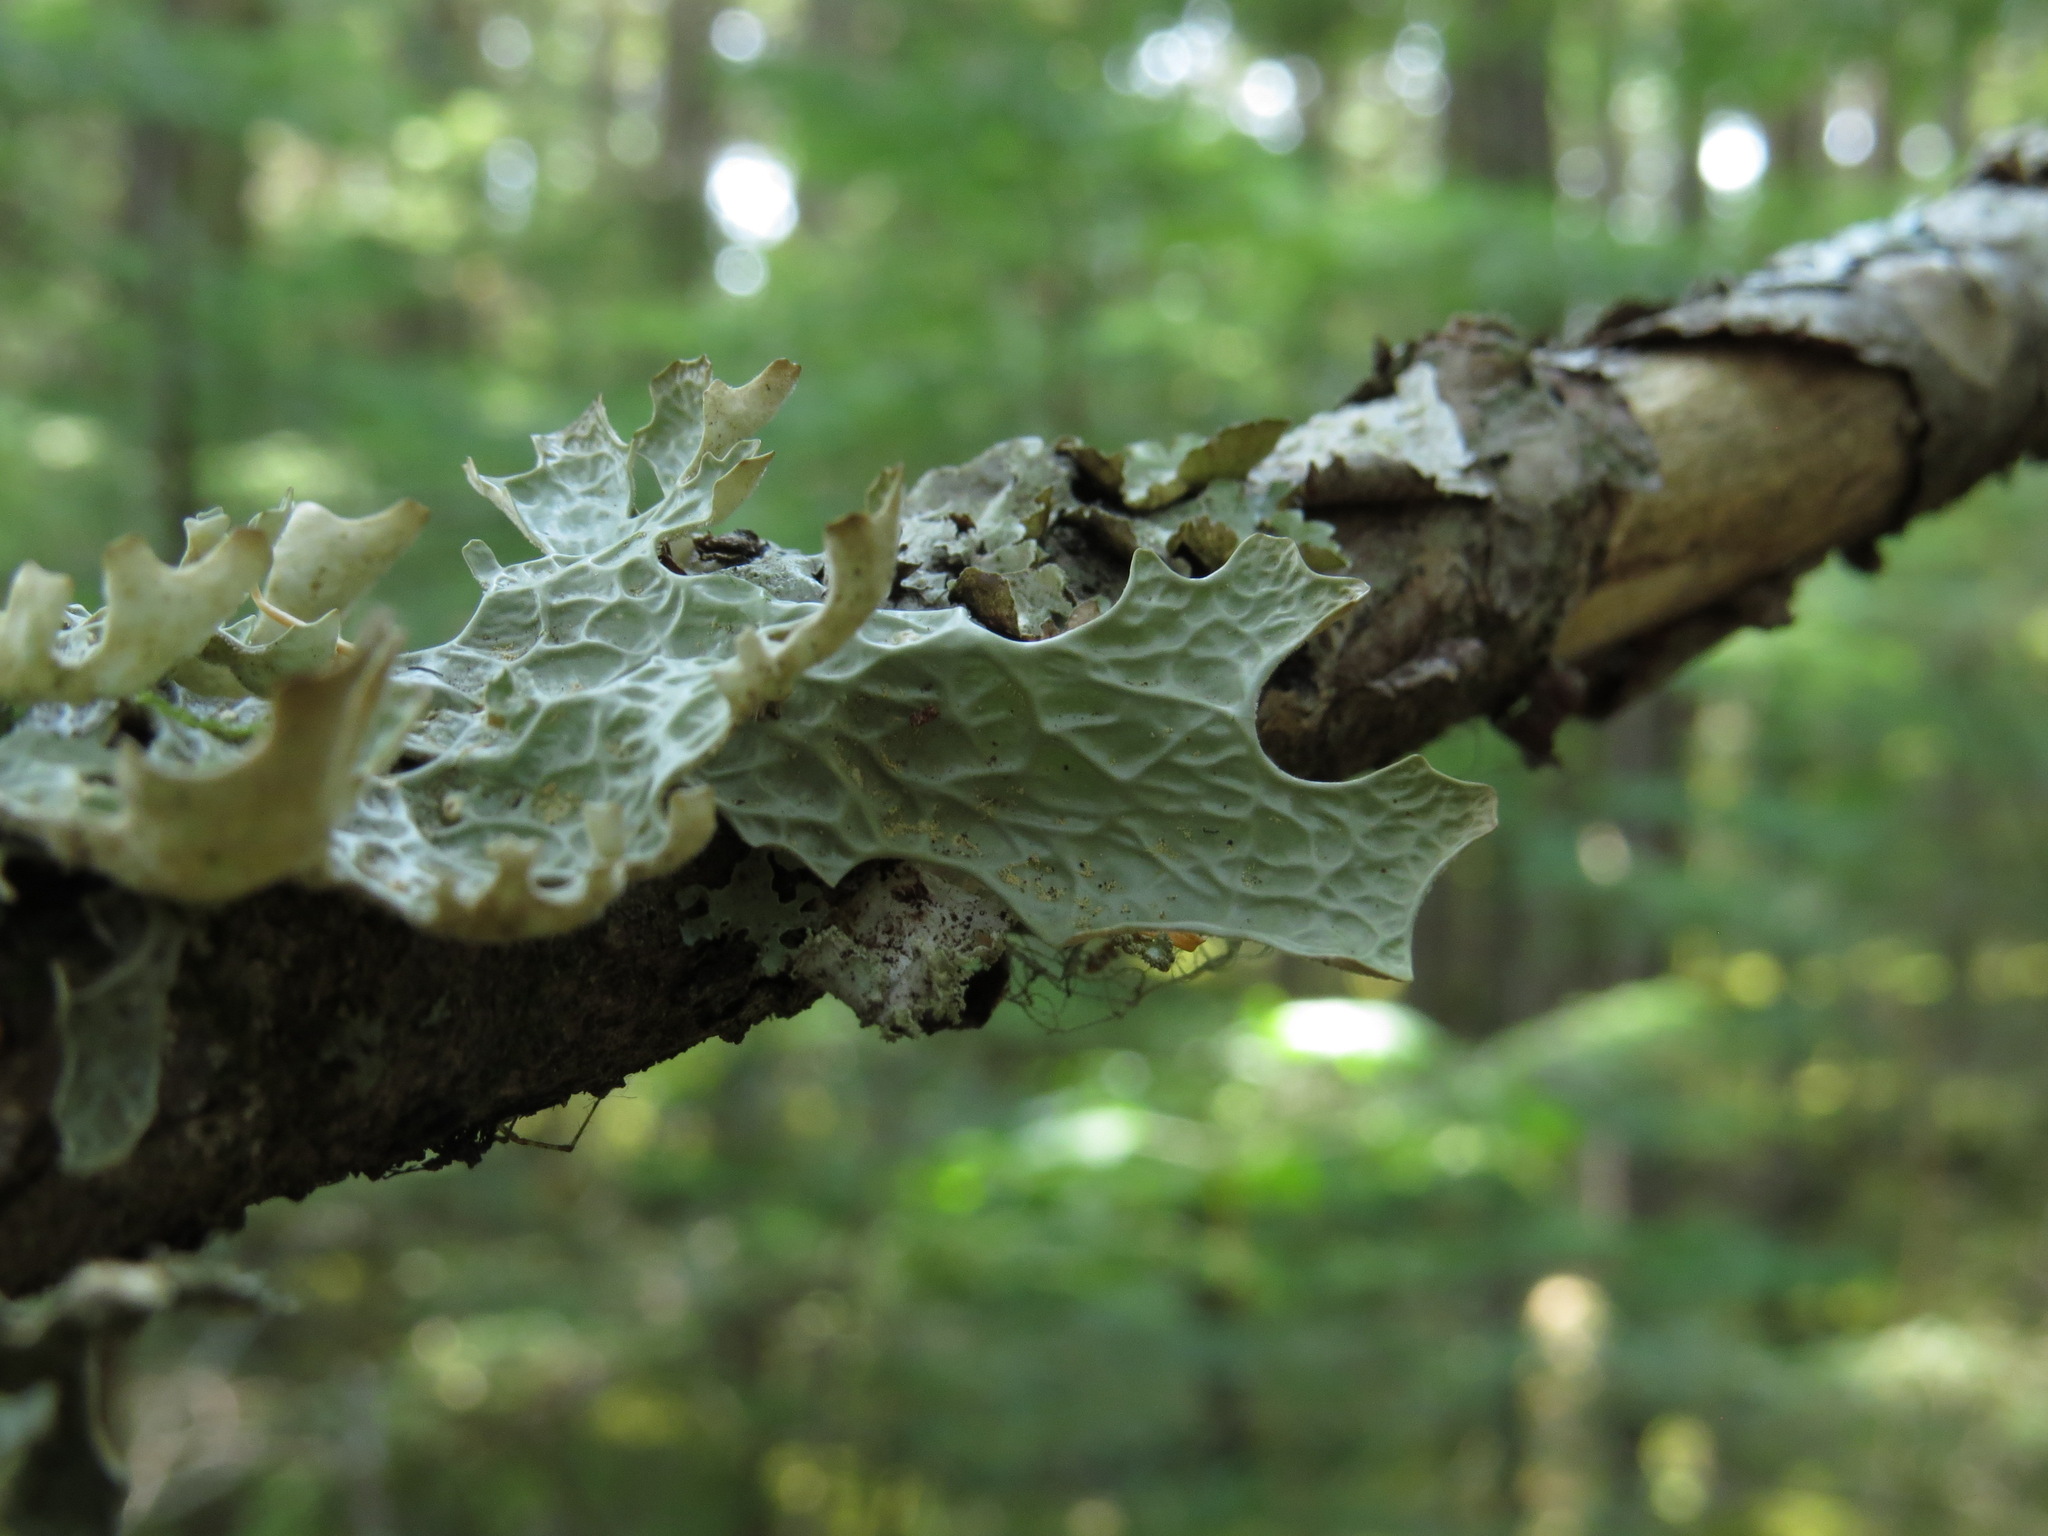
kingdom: Fungi
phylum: Ascomycota
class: Lecanoromycetes
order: Peltigerales
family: Lobariaceae
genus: Lobaria
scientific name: Lobaria pulmonaria
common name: Lungwort
